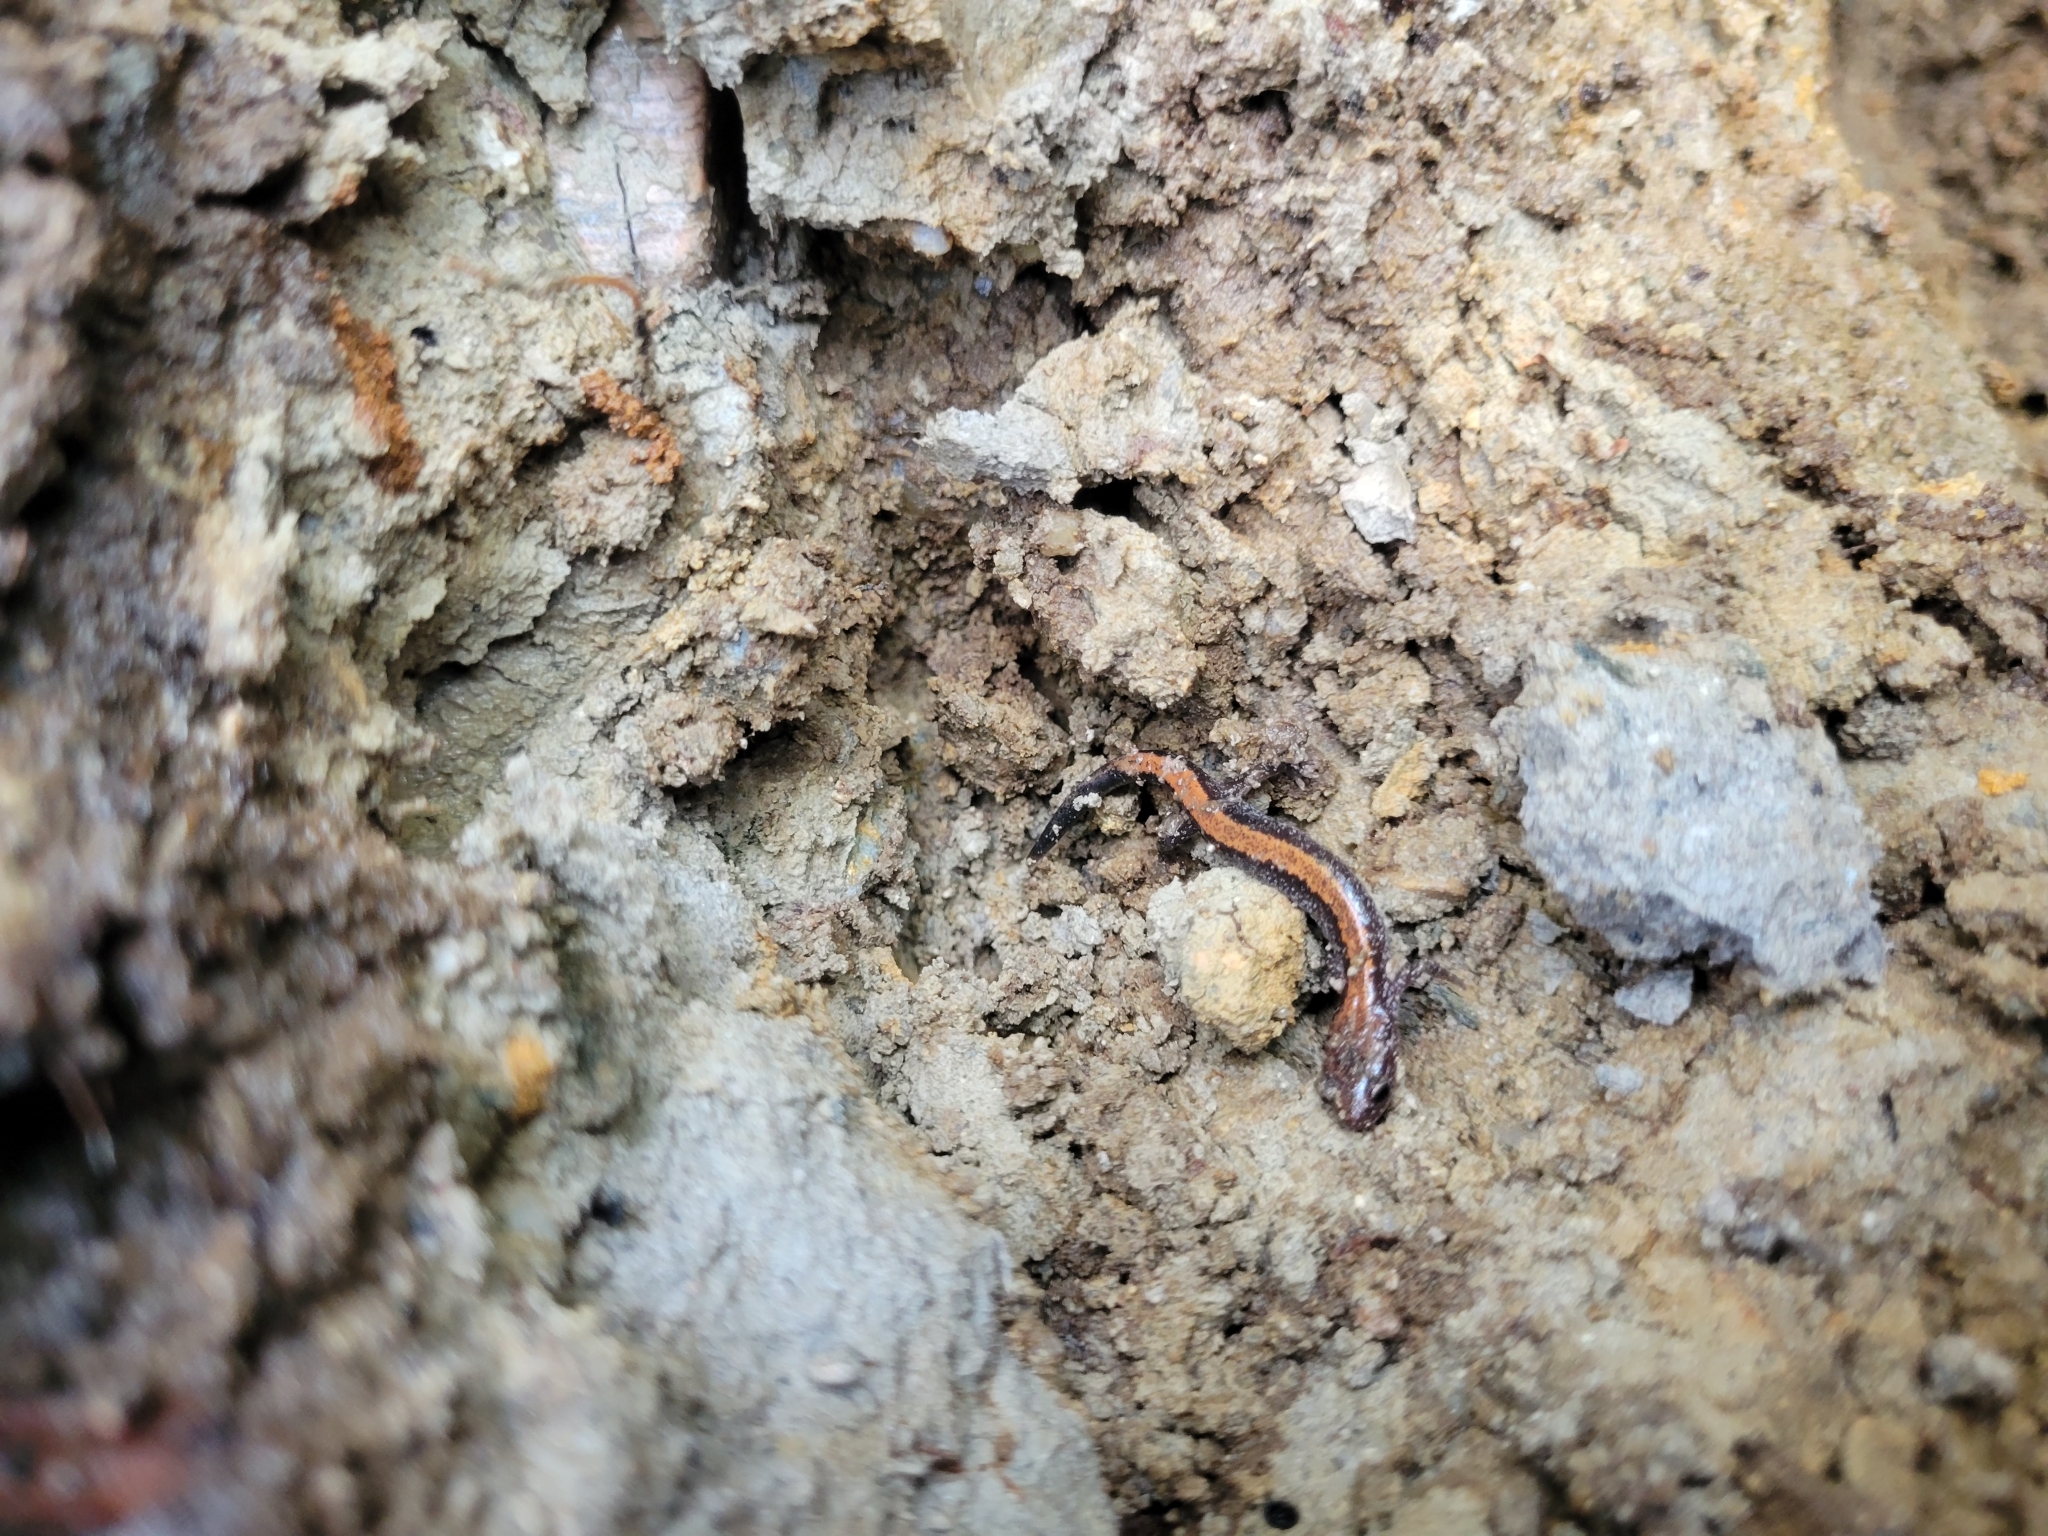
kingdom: Animalia
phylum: Chordata
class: Amphibia
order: Caudata
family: Plethodontidae
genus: Plethodon
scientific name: Plethodon cinereus
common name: Redback salamander
